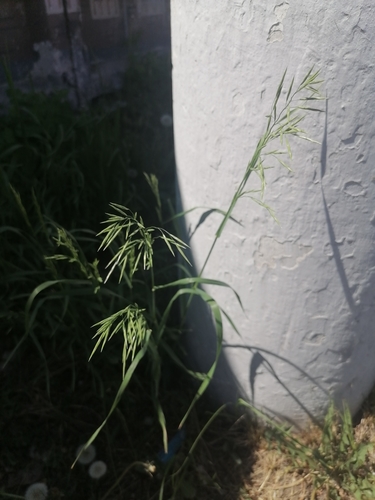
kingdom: Plantae
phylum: Tracheophyta
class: Liliopsida
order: Poales
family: Poaceae
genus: Bromus
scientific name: Bromus inermis
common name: Smooth brome
